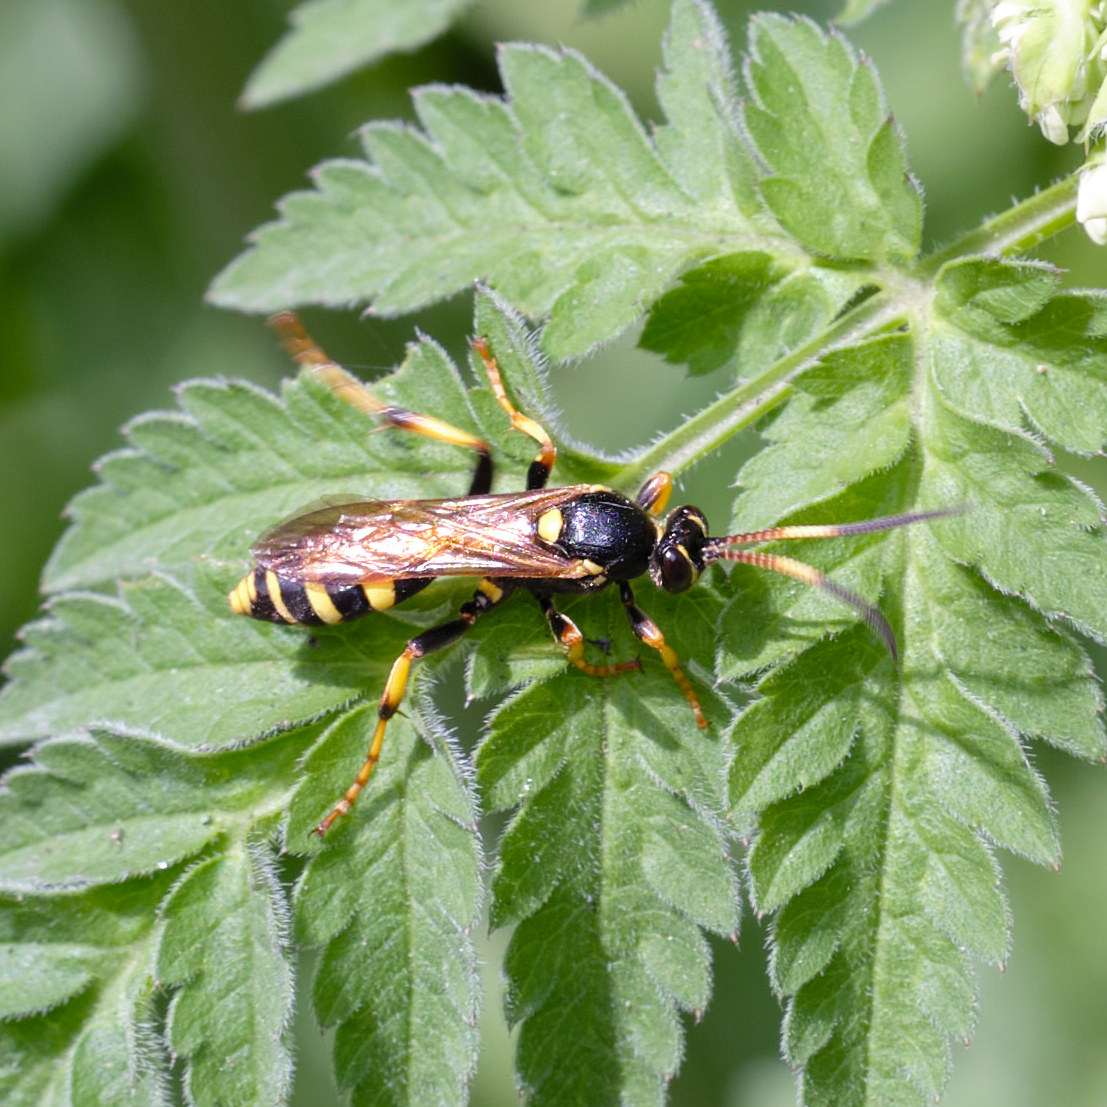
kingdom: Animalia
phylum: Arthropoda
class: Insecta
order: Hymenoptera
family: Ichneumonidae
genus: Ichneumon
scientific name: Ichneumon xanthorius
